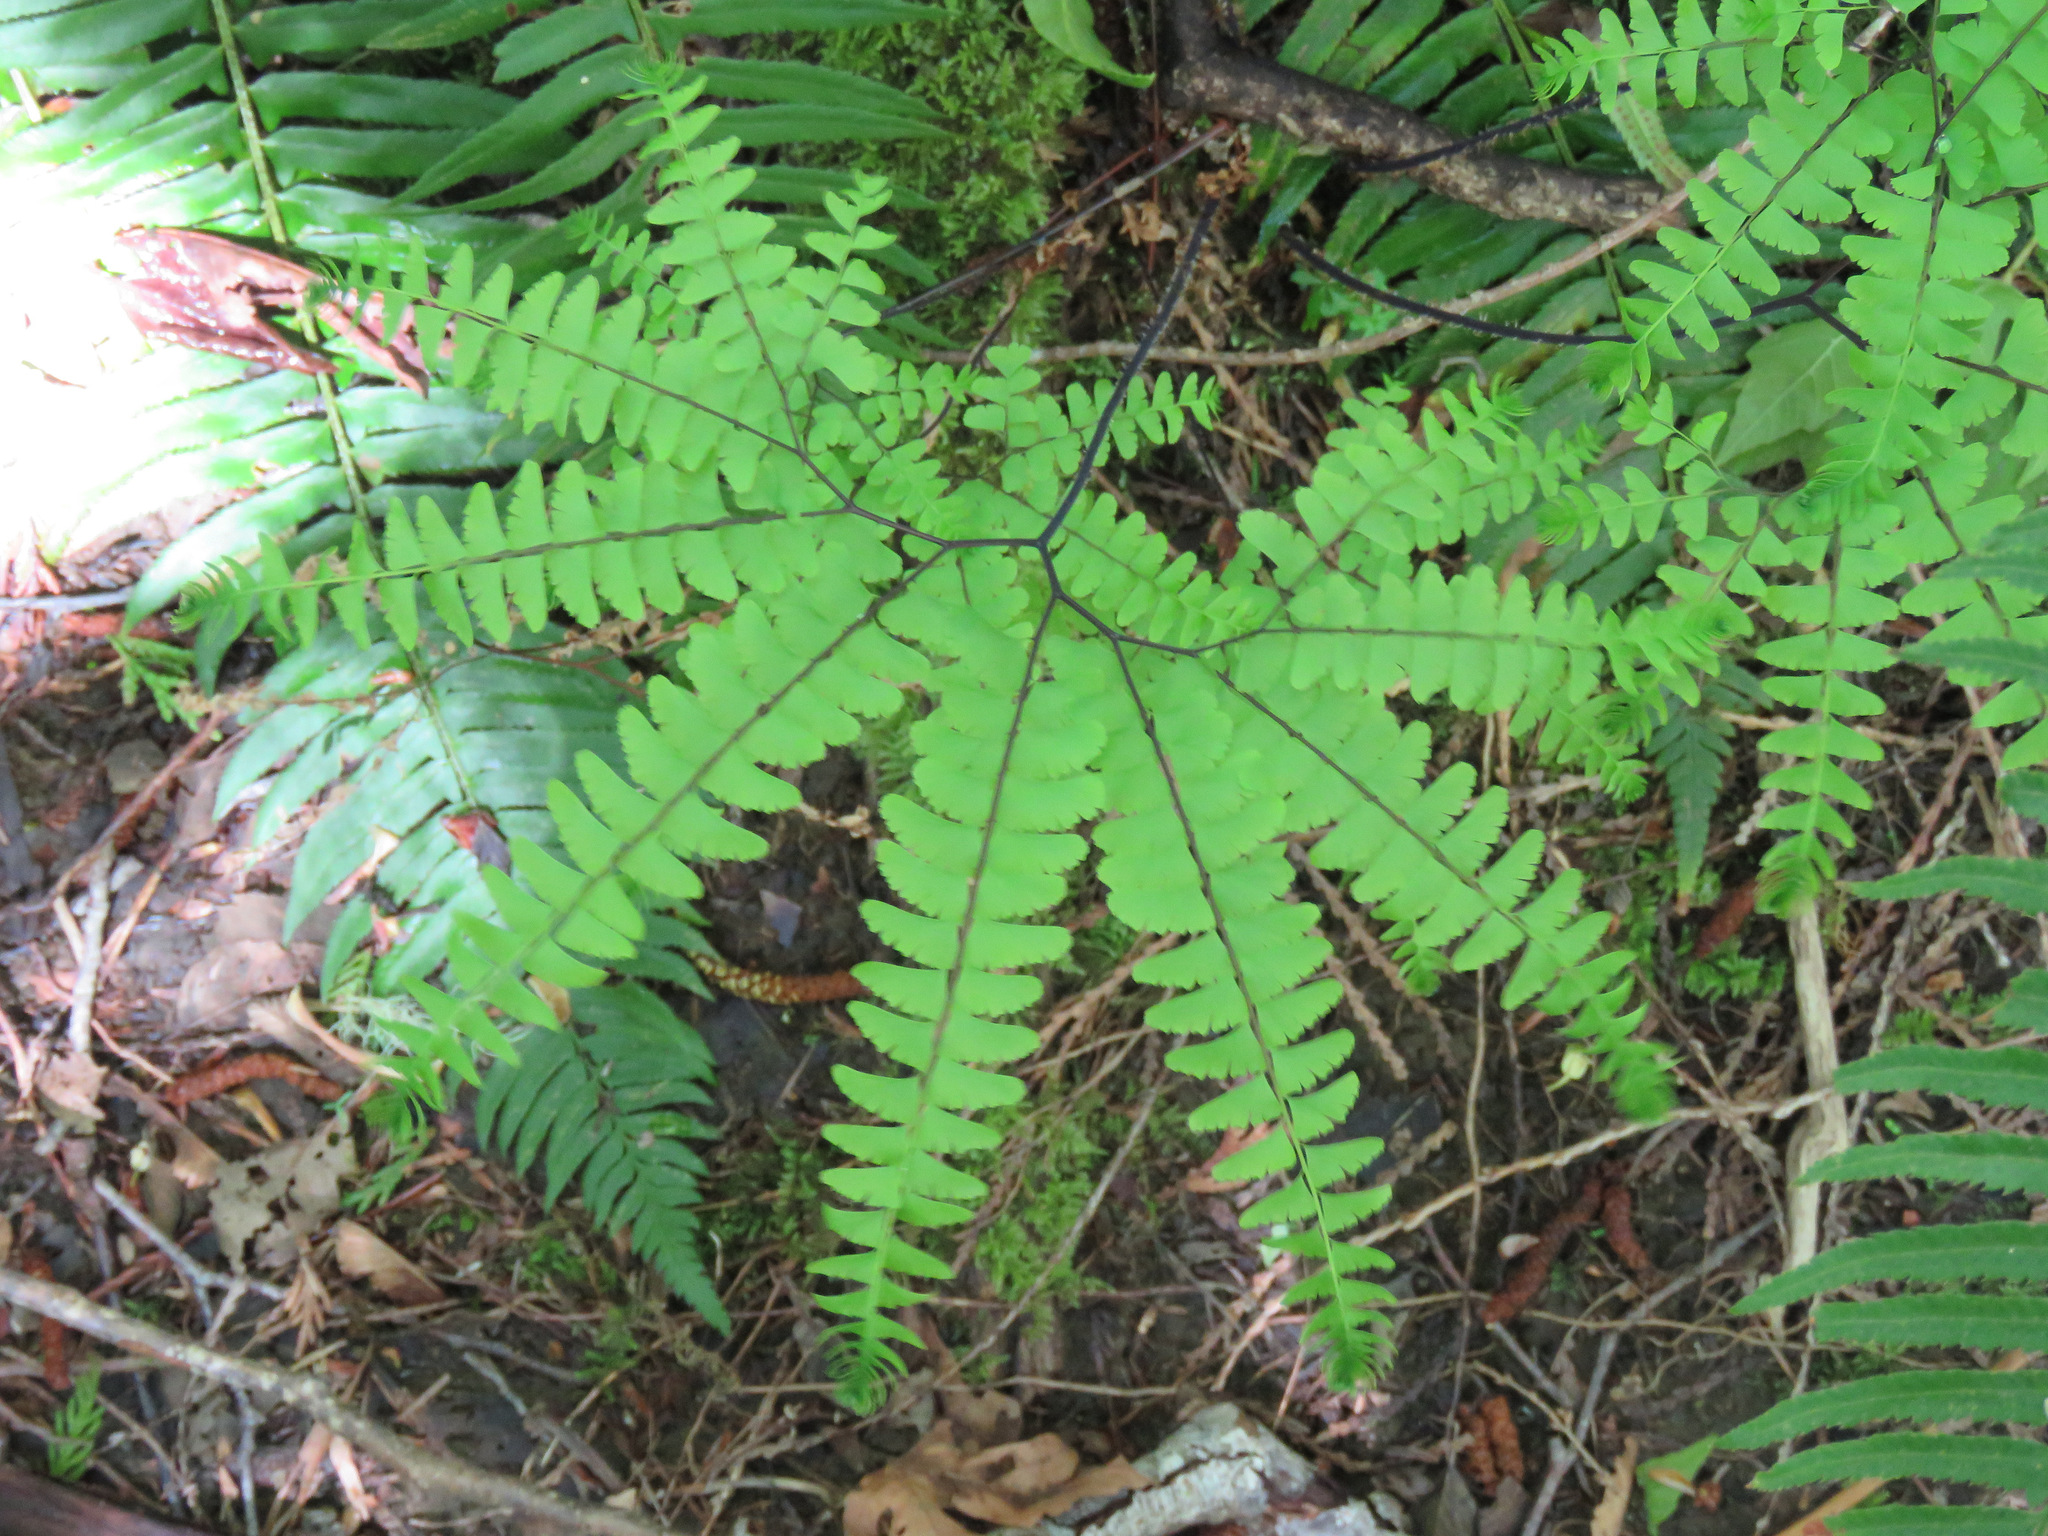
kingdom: Plantae
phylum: Tracheophyta
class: Polypodiopsida
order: Polypodiales
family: Pteridaceae
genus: Adiantum
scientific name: Adiantum aleuticum
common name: Aleutian maidenhair fern
